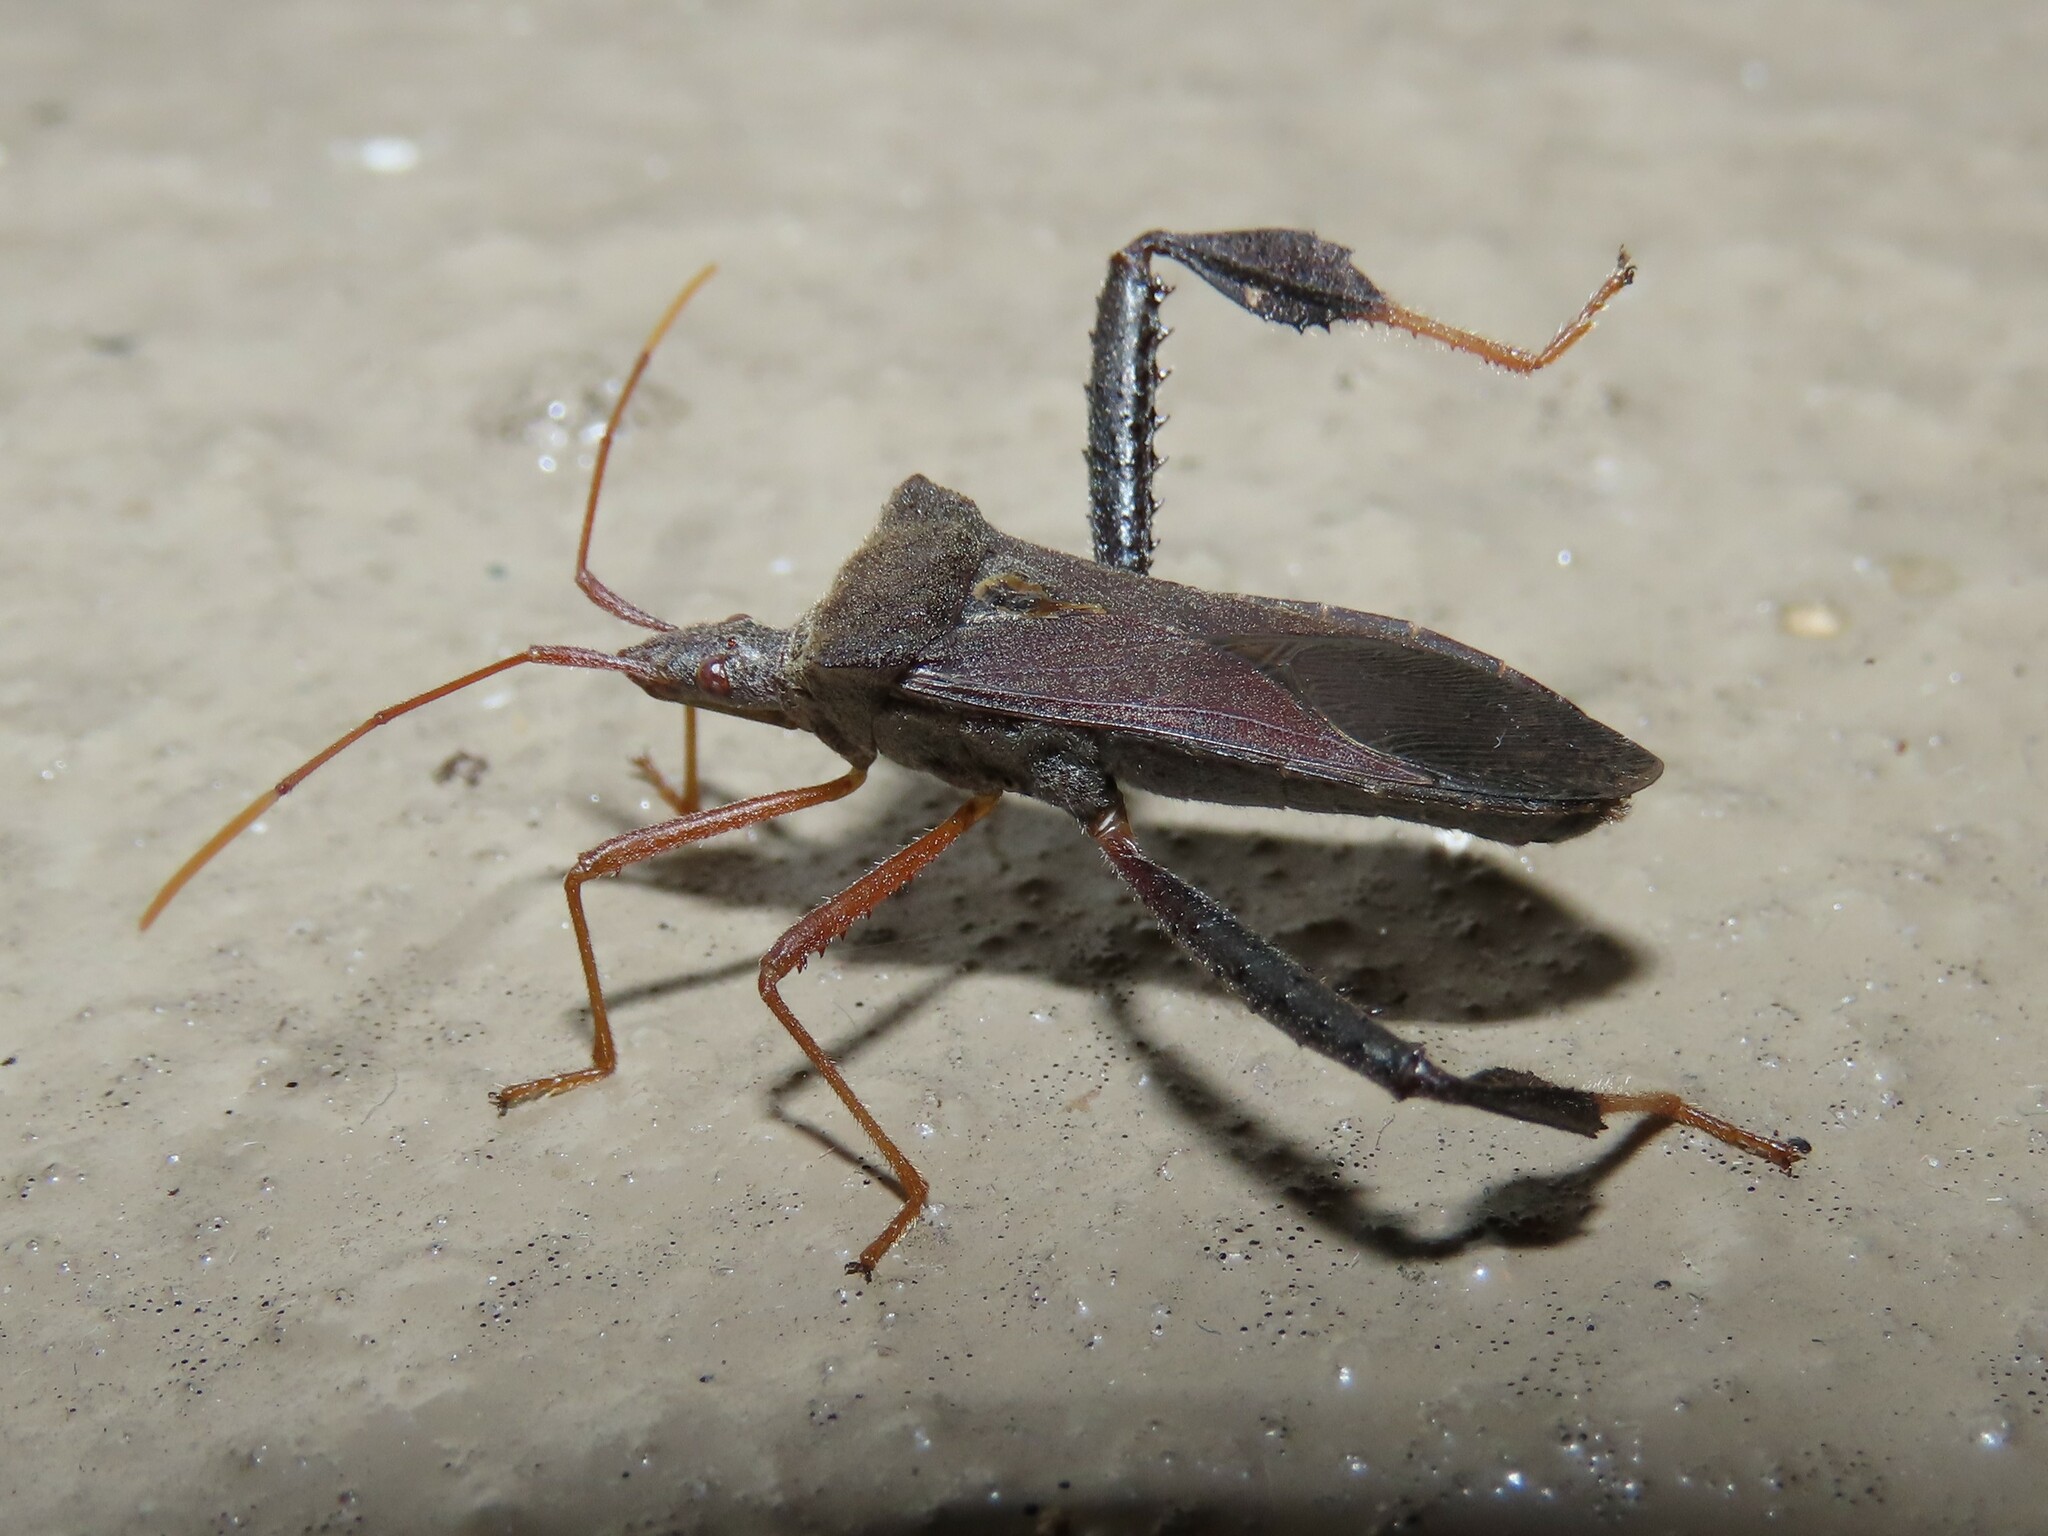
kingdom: Animalia
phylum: Arthropoda
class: Insecta
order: Hemiptera
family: Coreidae
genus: Leptoglossus
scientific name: Leptoglossus fulvicornis
